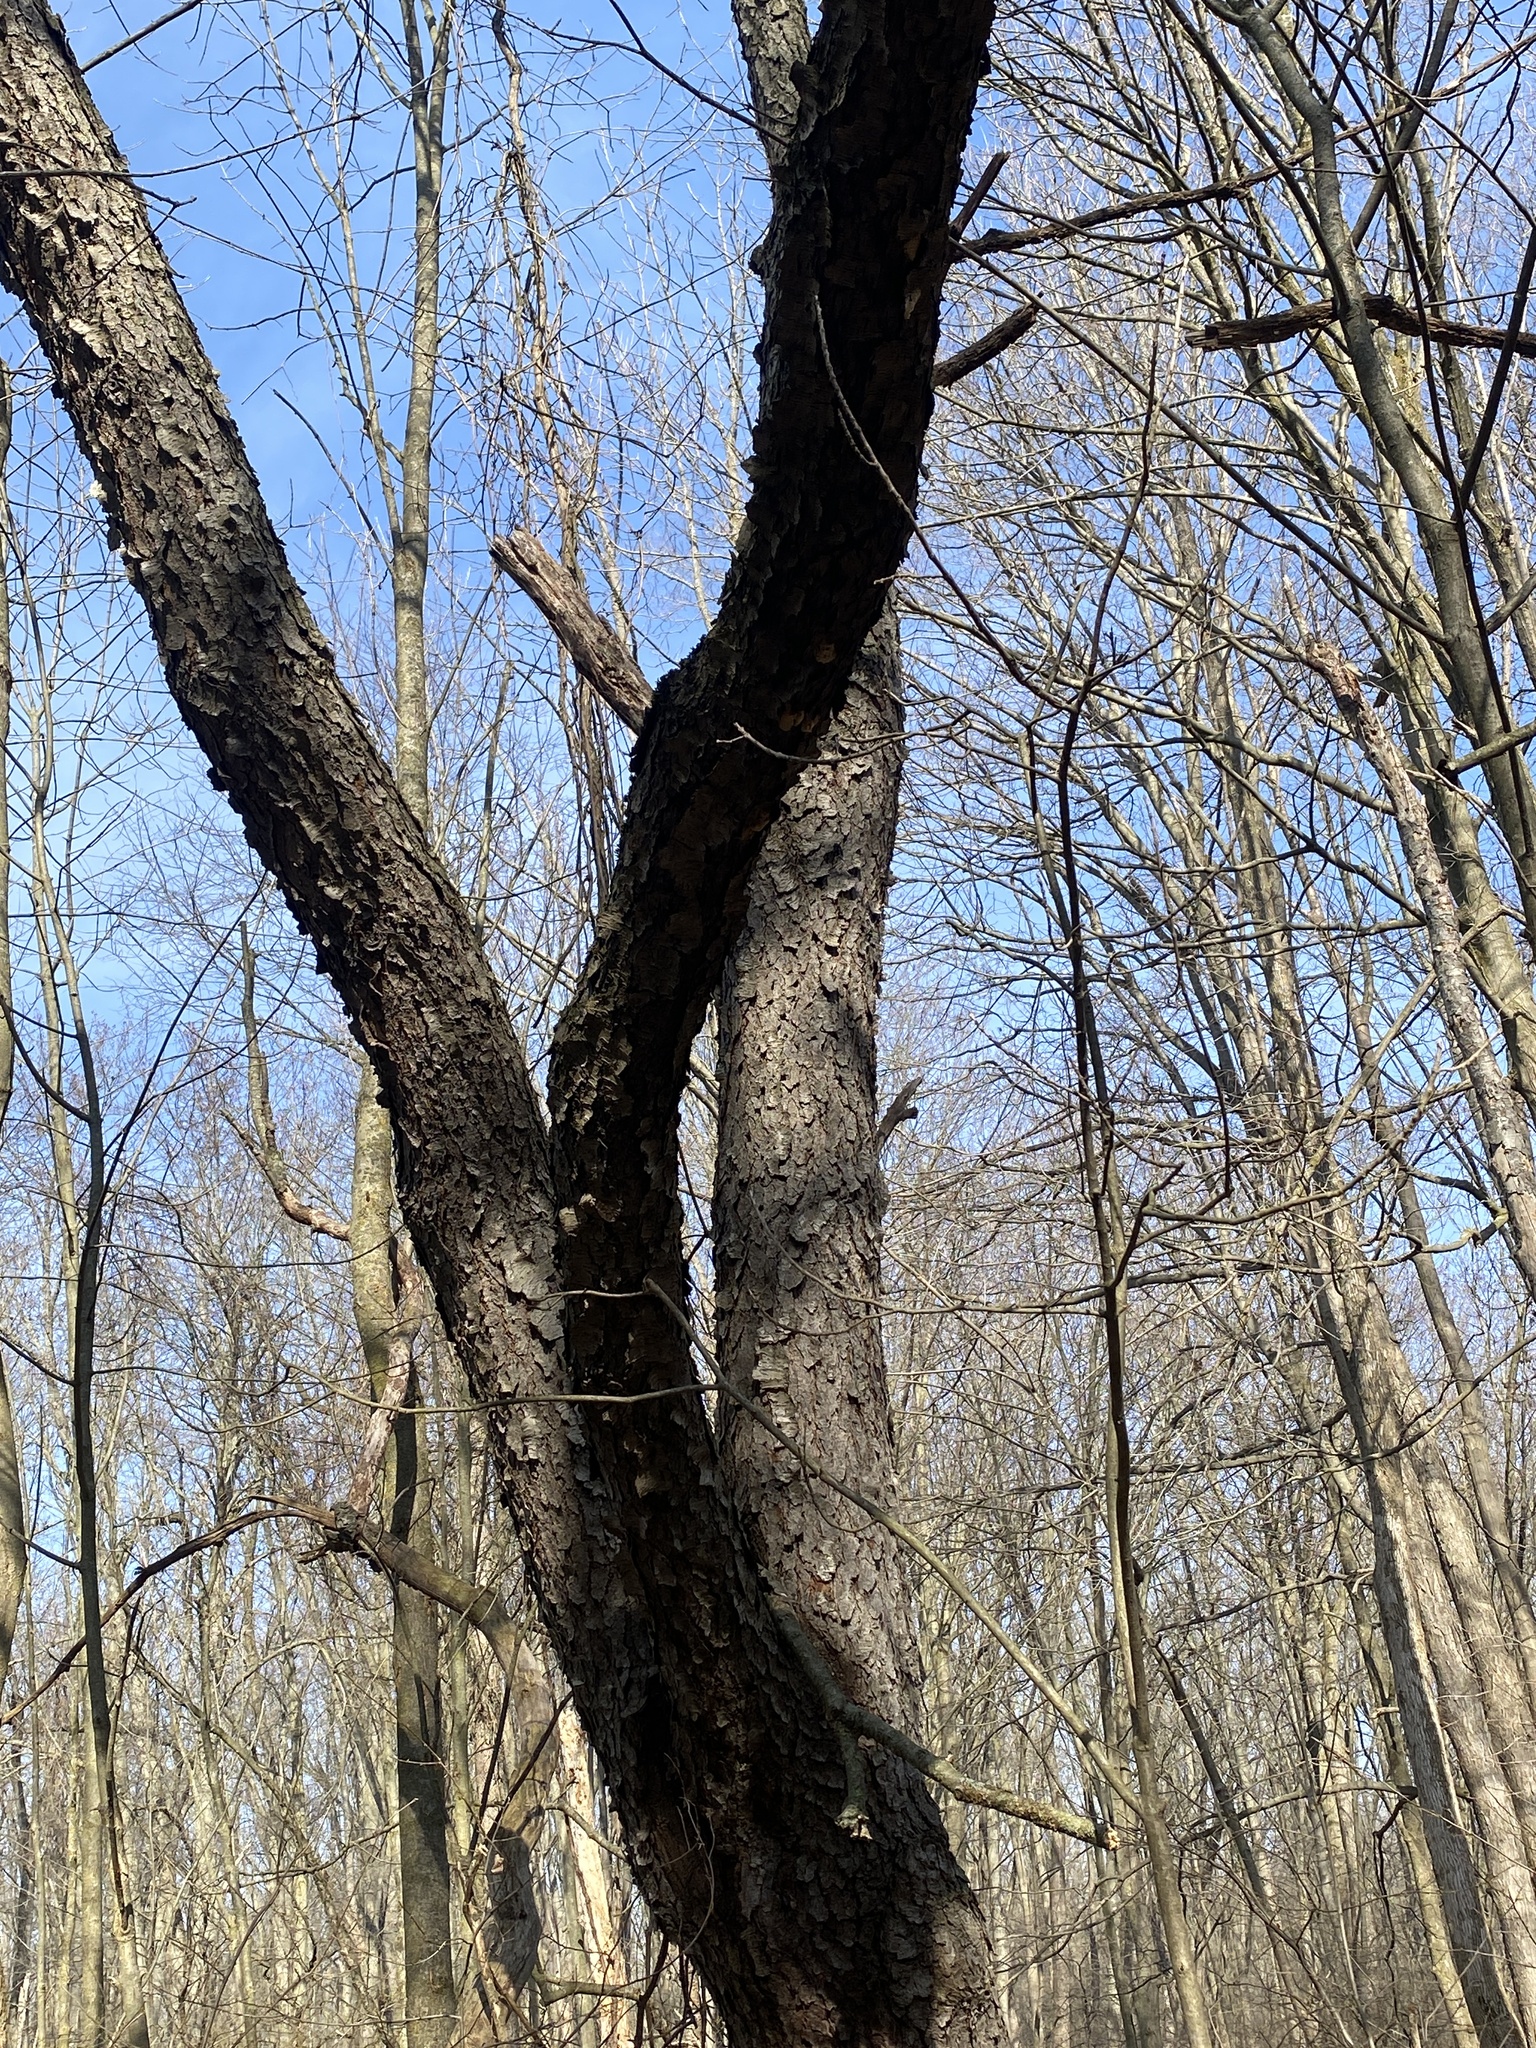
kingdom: Plantae
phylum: Tracheophyta
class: Magnoliopsida
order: Rosales
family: Rosaceae
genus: Prunus
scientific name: Prunus serotina
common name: Black cherry
